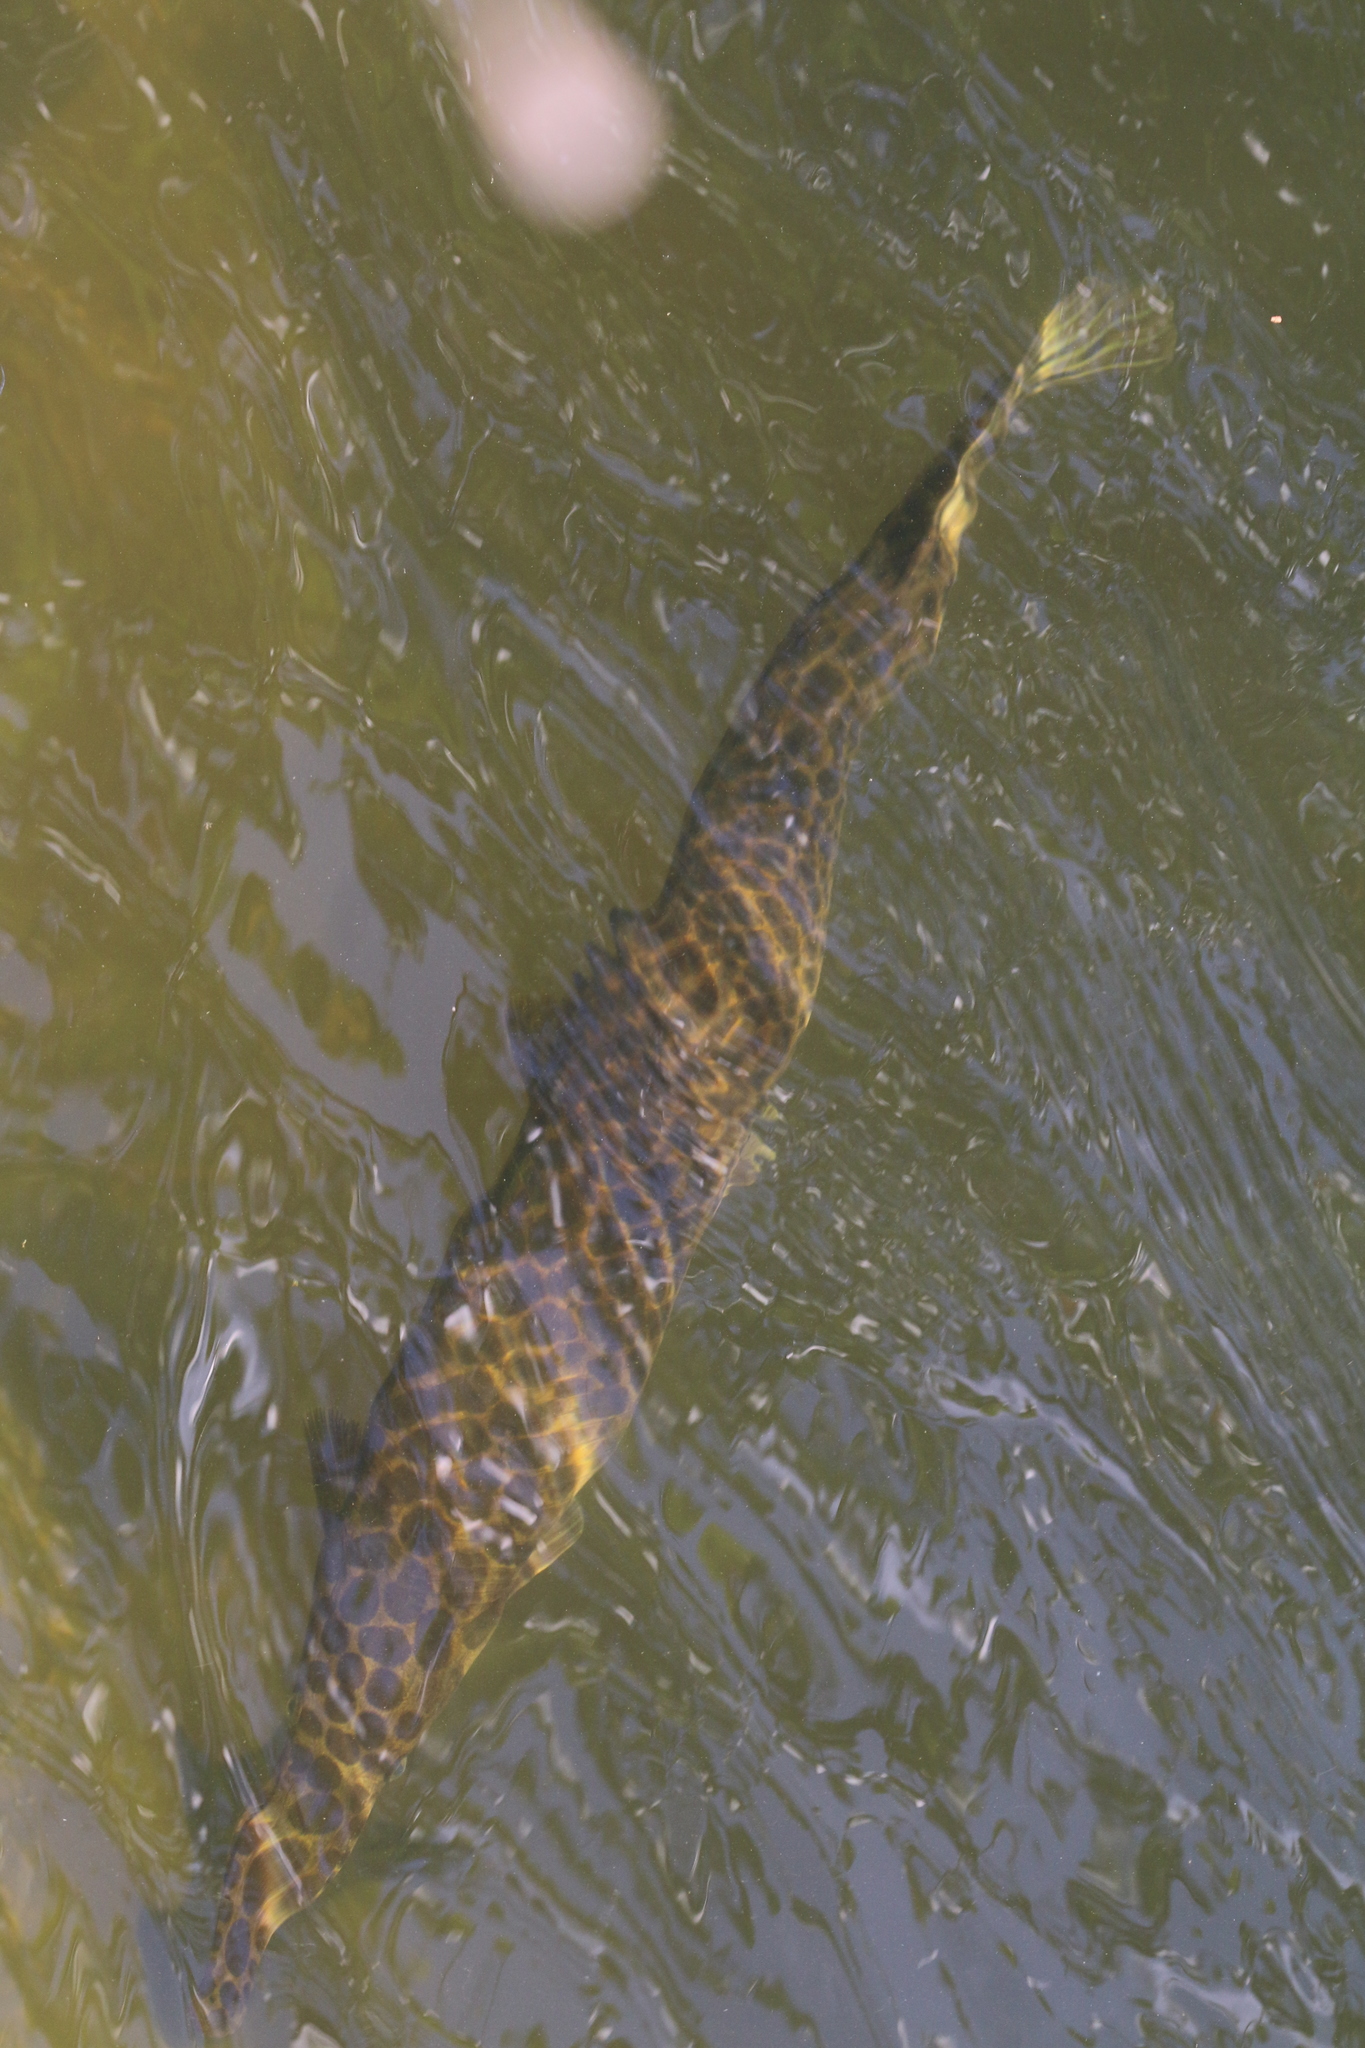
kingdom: Animalia
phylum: Chordata
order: Lepisosteiformes
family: Lepisosteidae
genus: Lepisosteus
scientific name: Lepisosteus platyrhincus
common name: Florida gar
